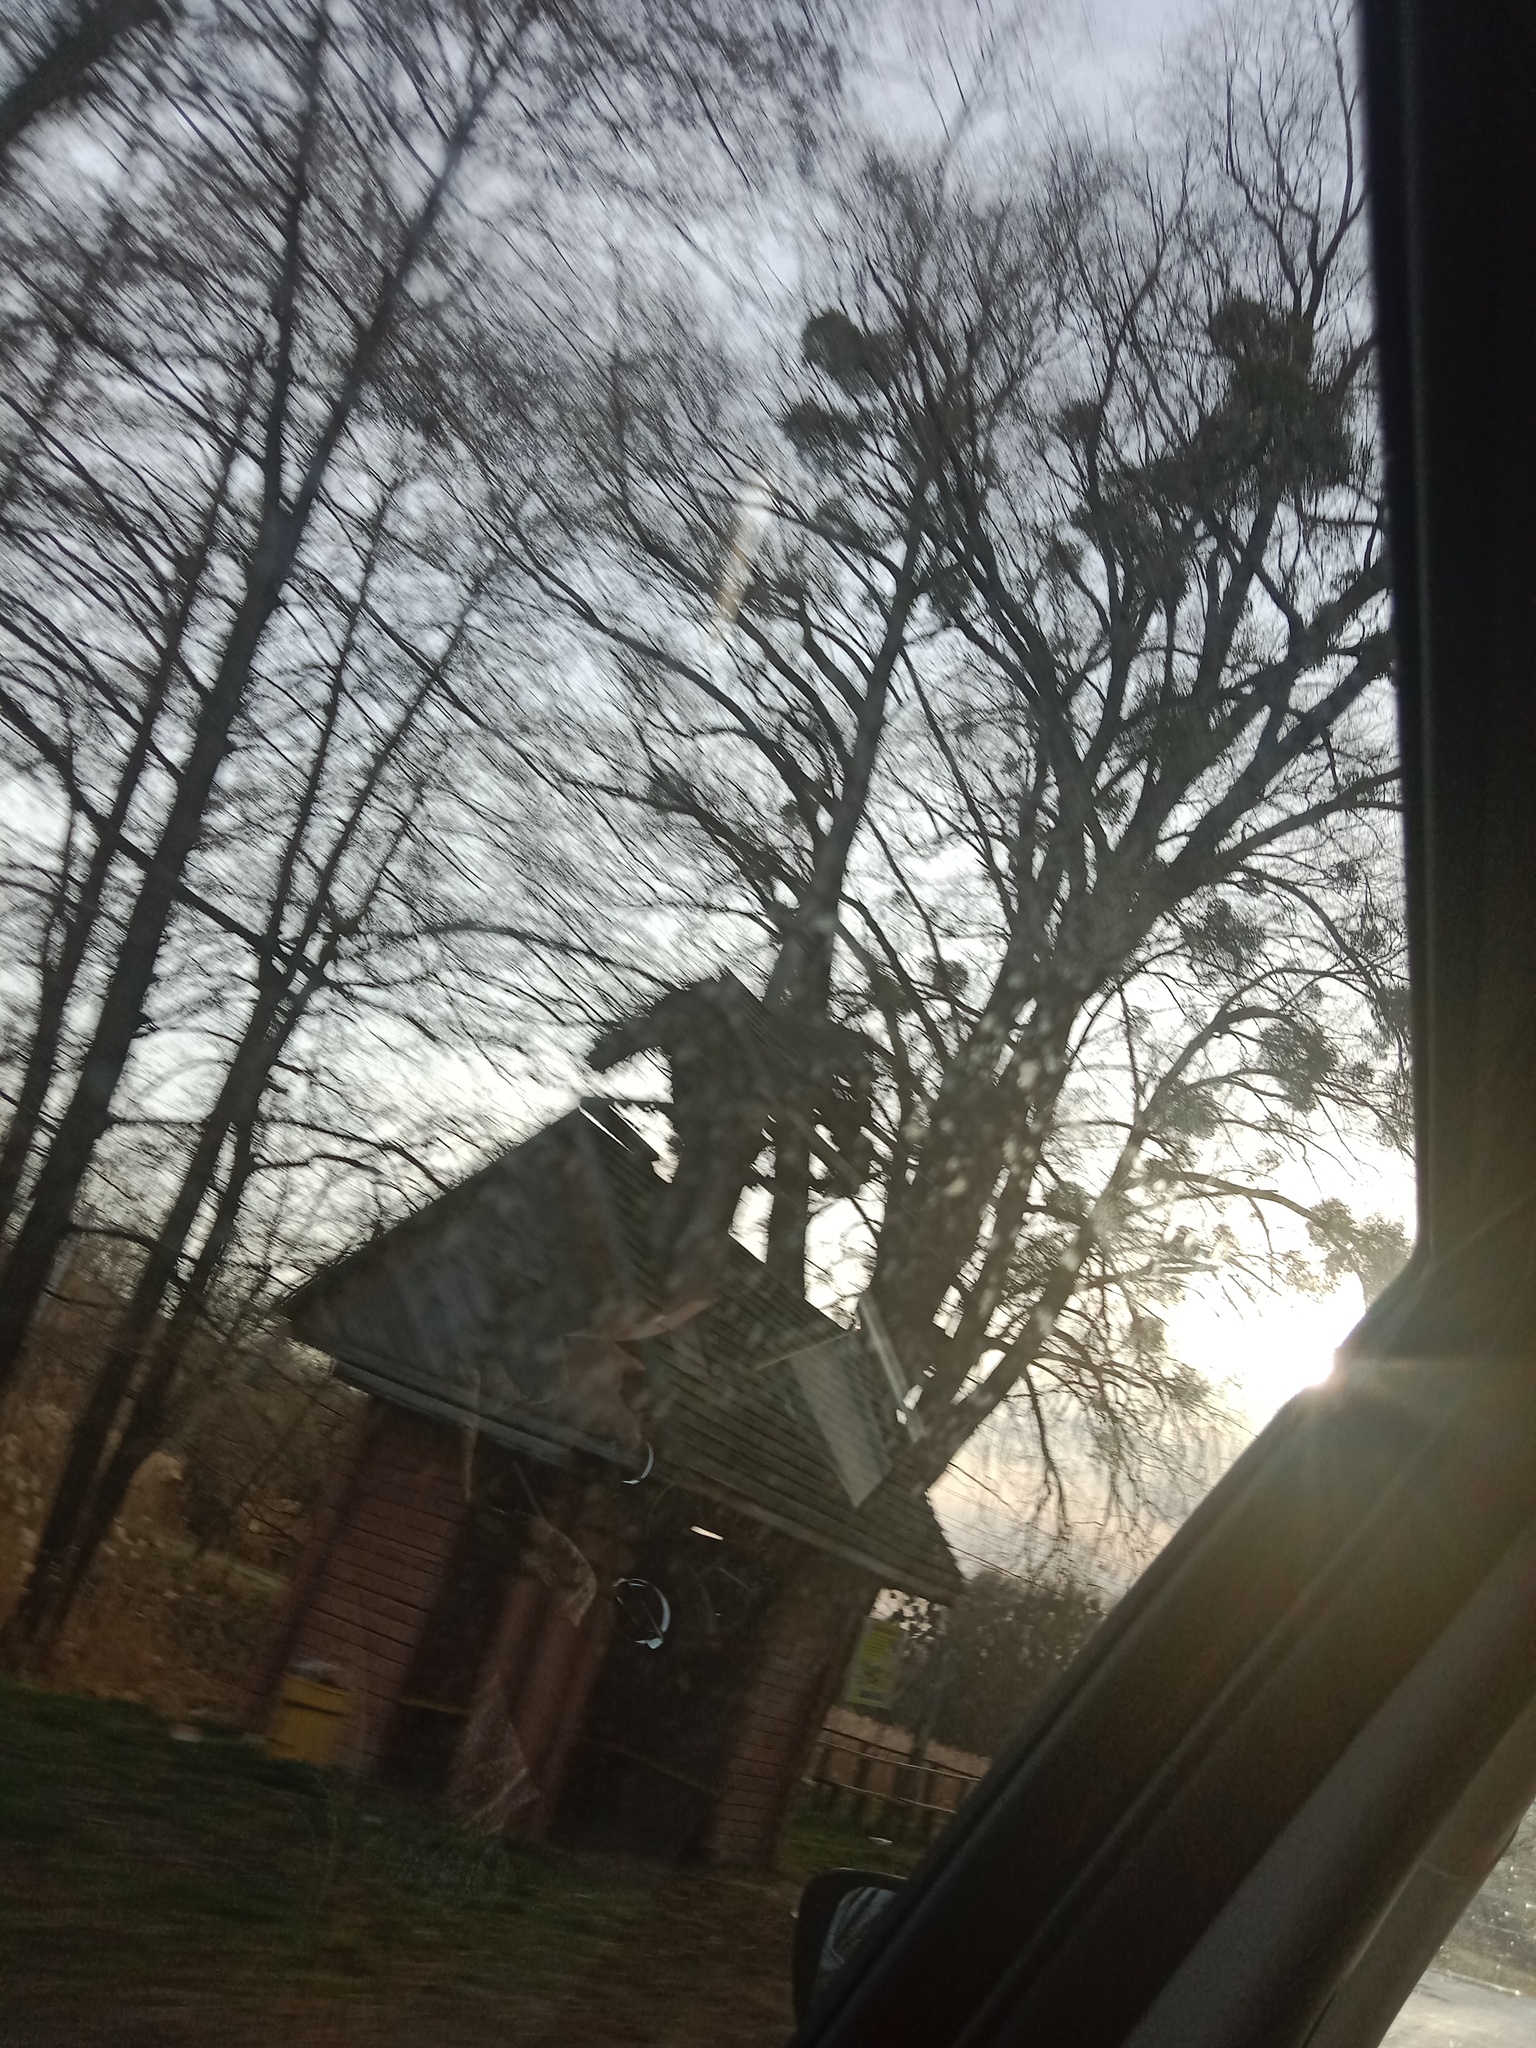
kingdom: Plantae
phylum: Tracheophyta
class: Magnoliopsida
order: Santalales
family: Viscaceae
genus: Viscum
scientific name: Viscum album
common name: Mistletoe
